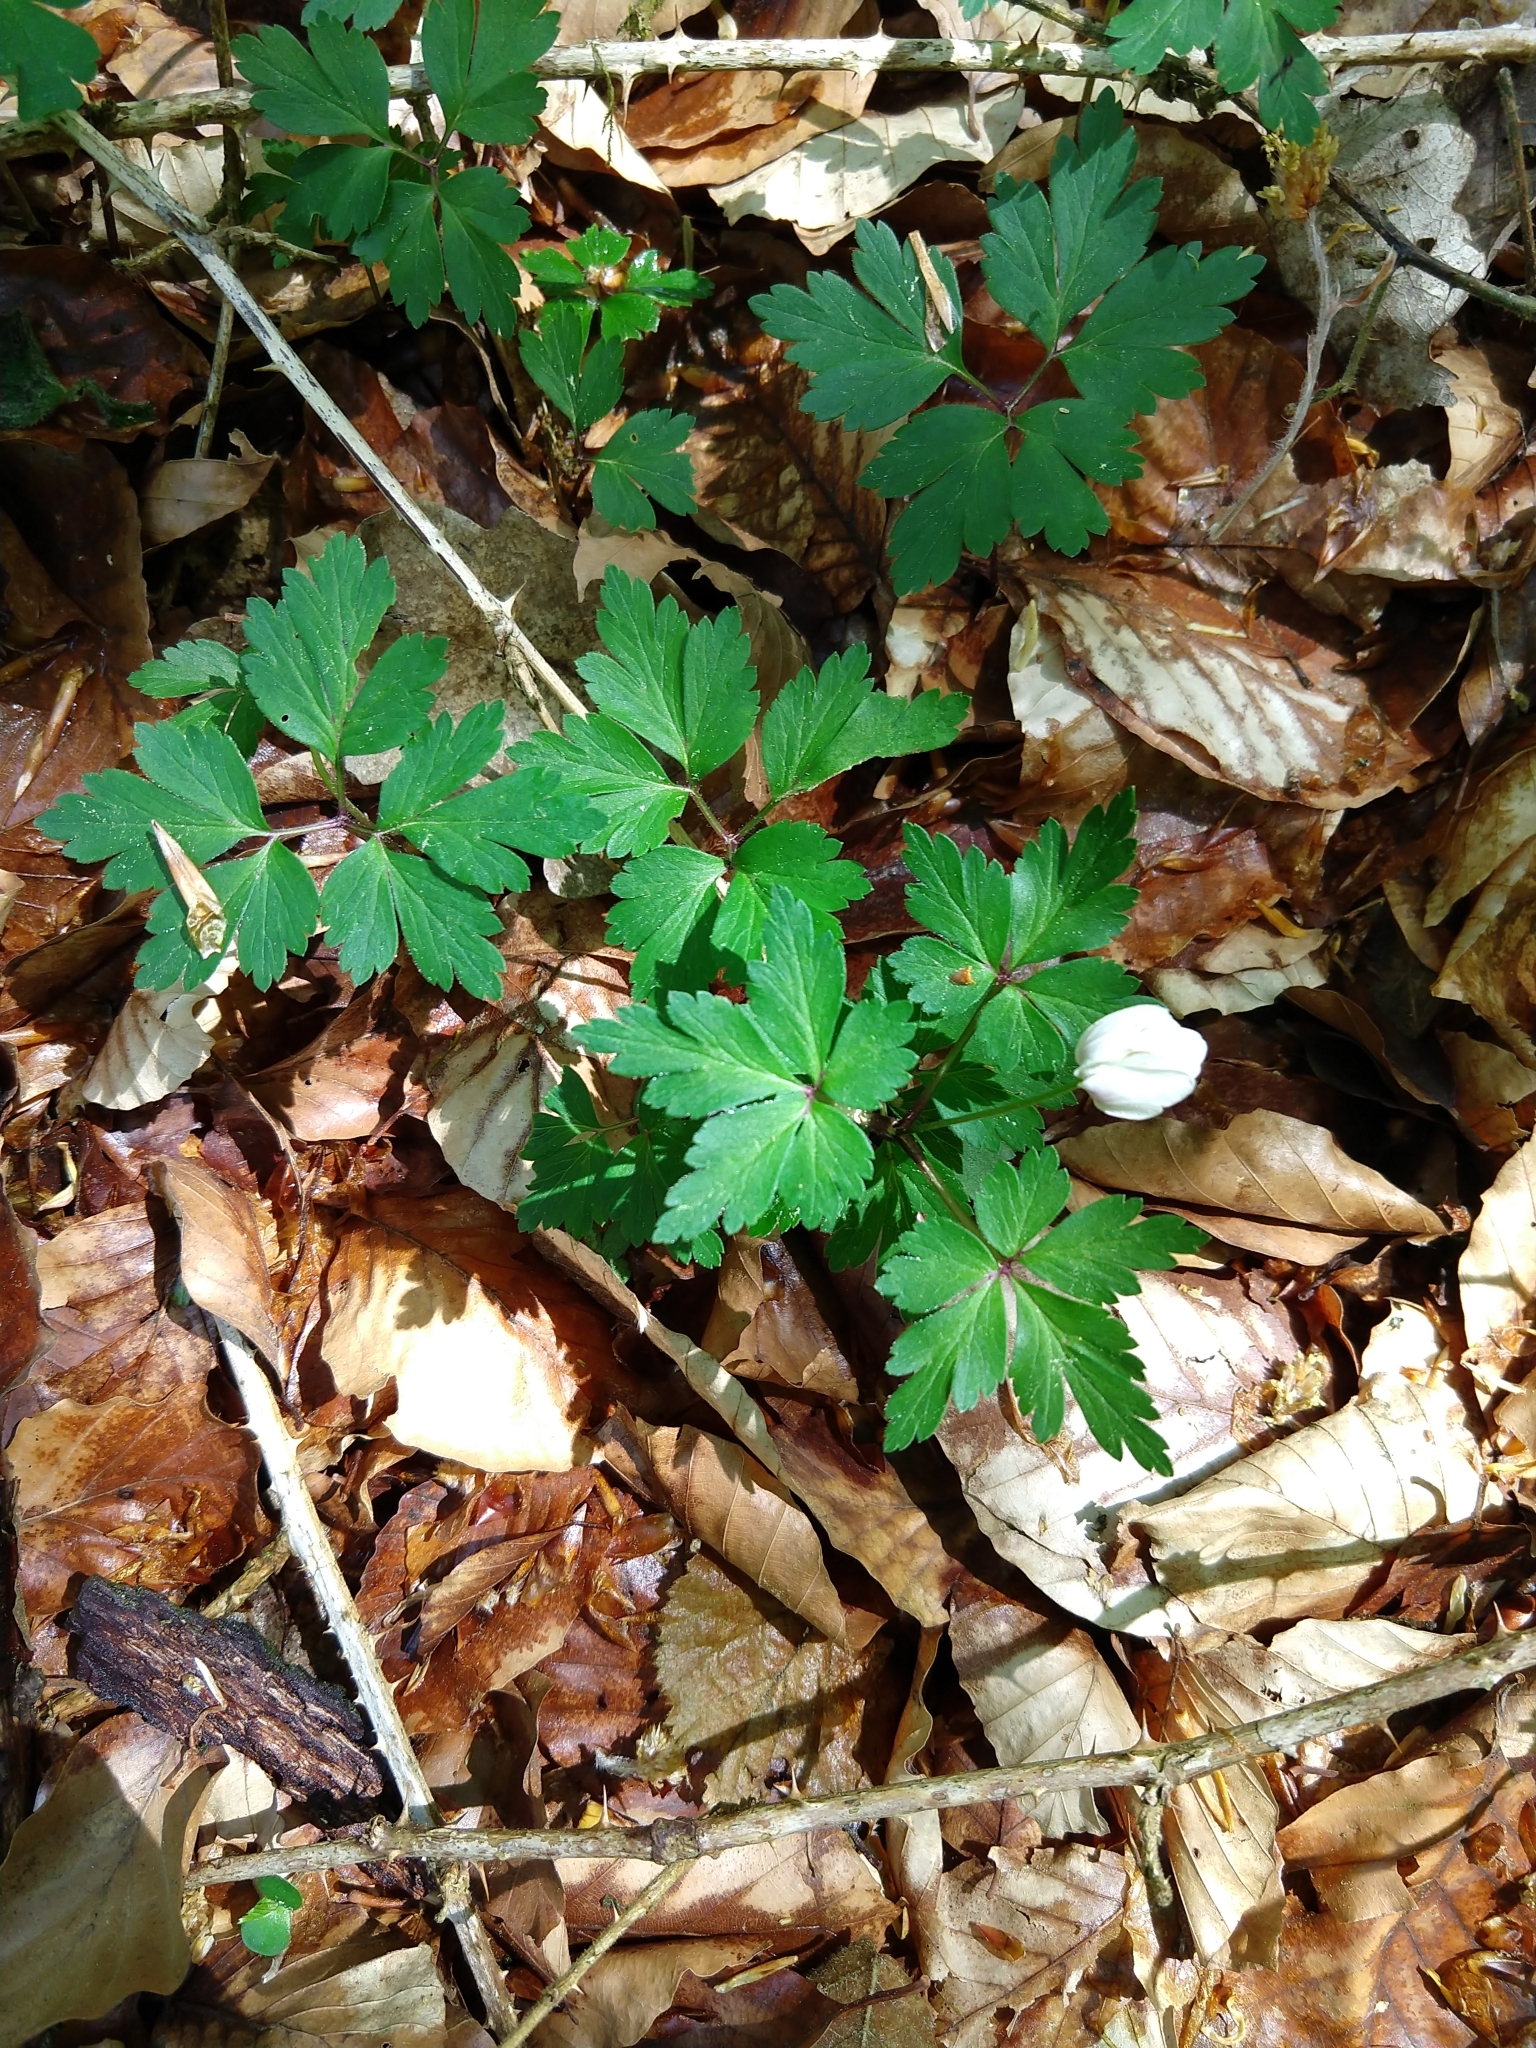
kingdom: Plantae
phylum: Tracheophyta
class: Magnoliopsida
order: Ranunculales
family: Ranunculaceae
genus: Anemone
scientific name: Anemone nemorosa
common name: Wood anemone
